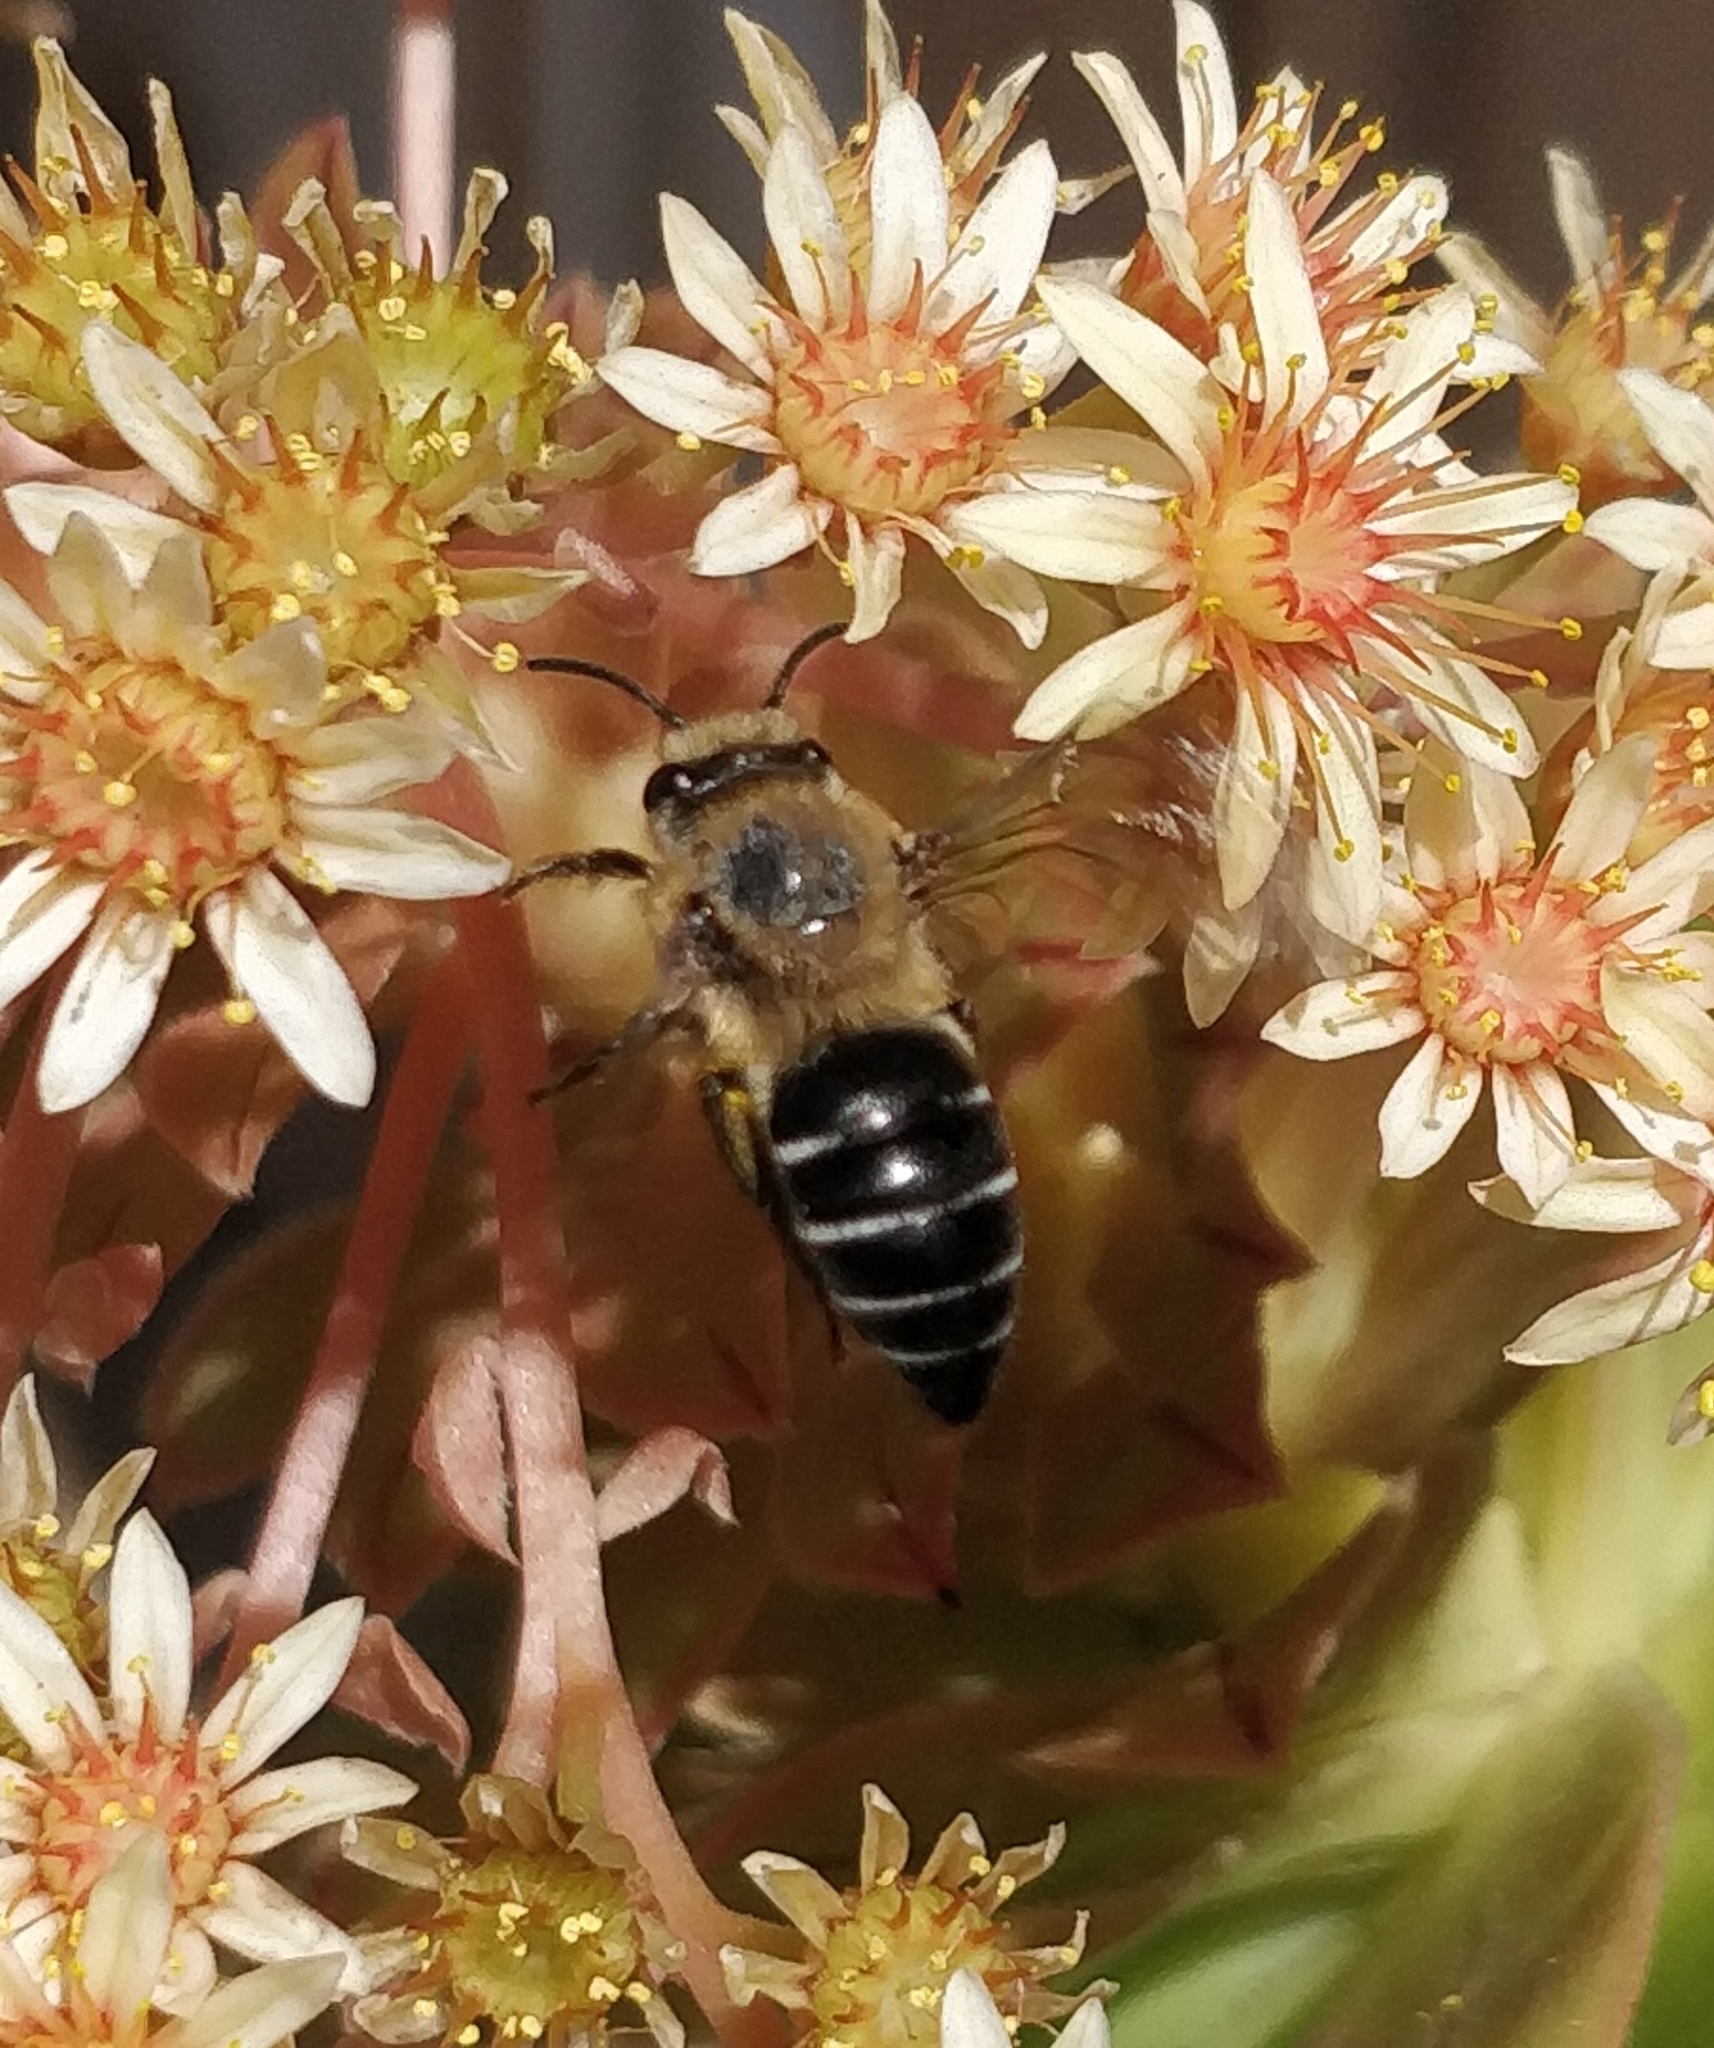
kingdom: Animalia
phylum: Arthropoda
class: Insecta
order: Hymenoptera
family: Colletidae
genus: Colletes
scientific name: Colletes dimidiatus
